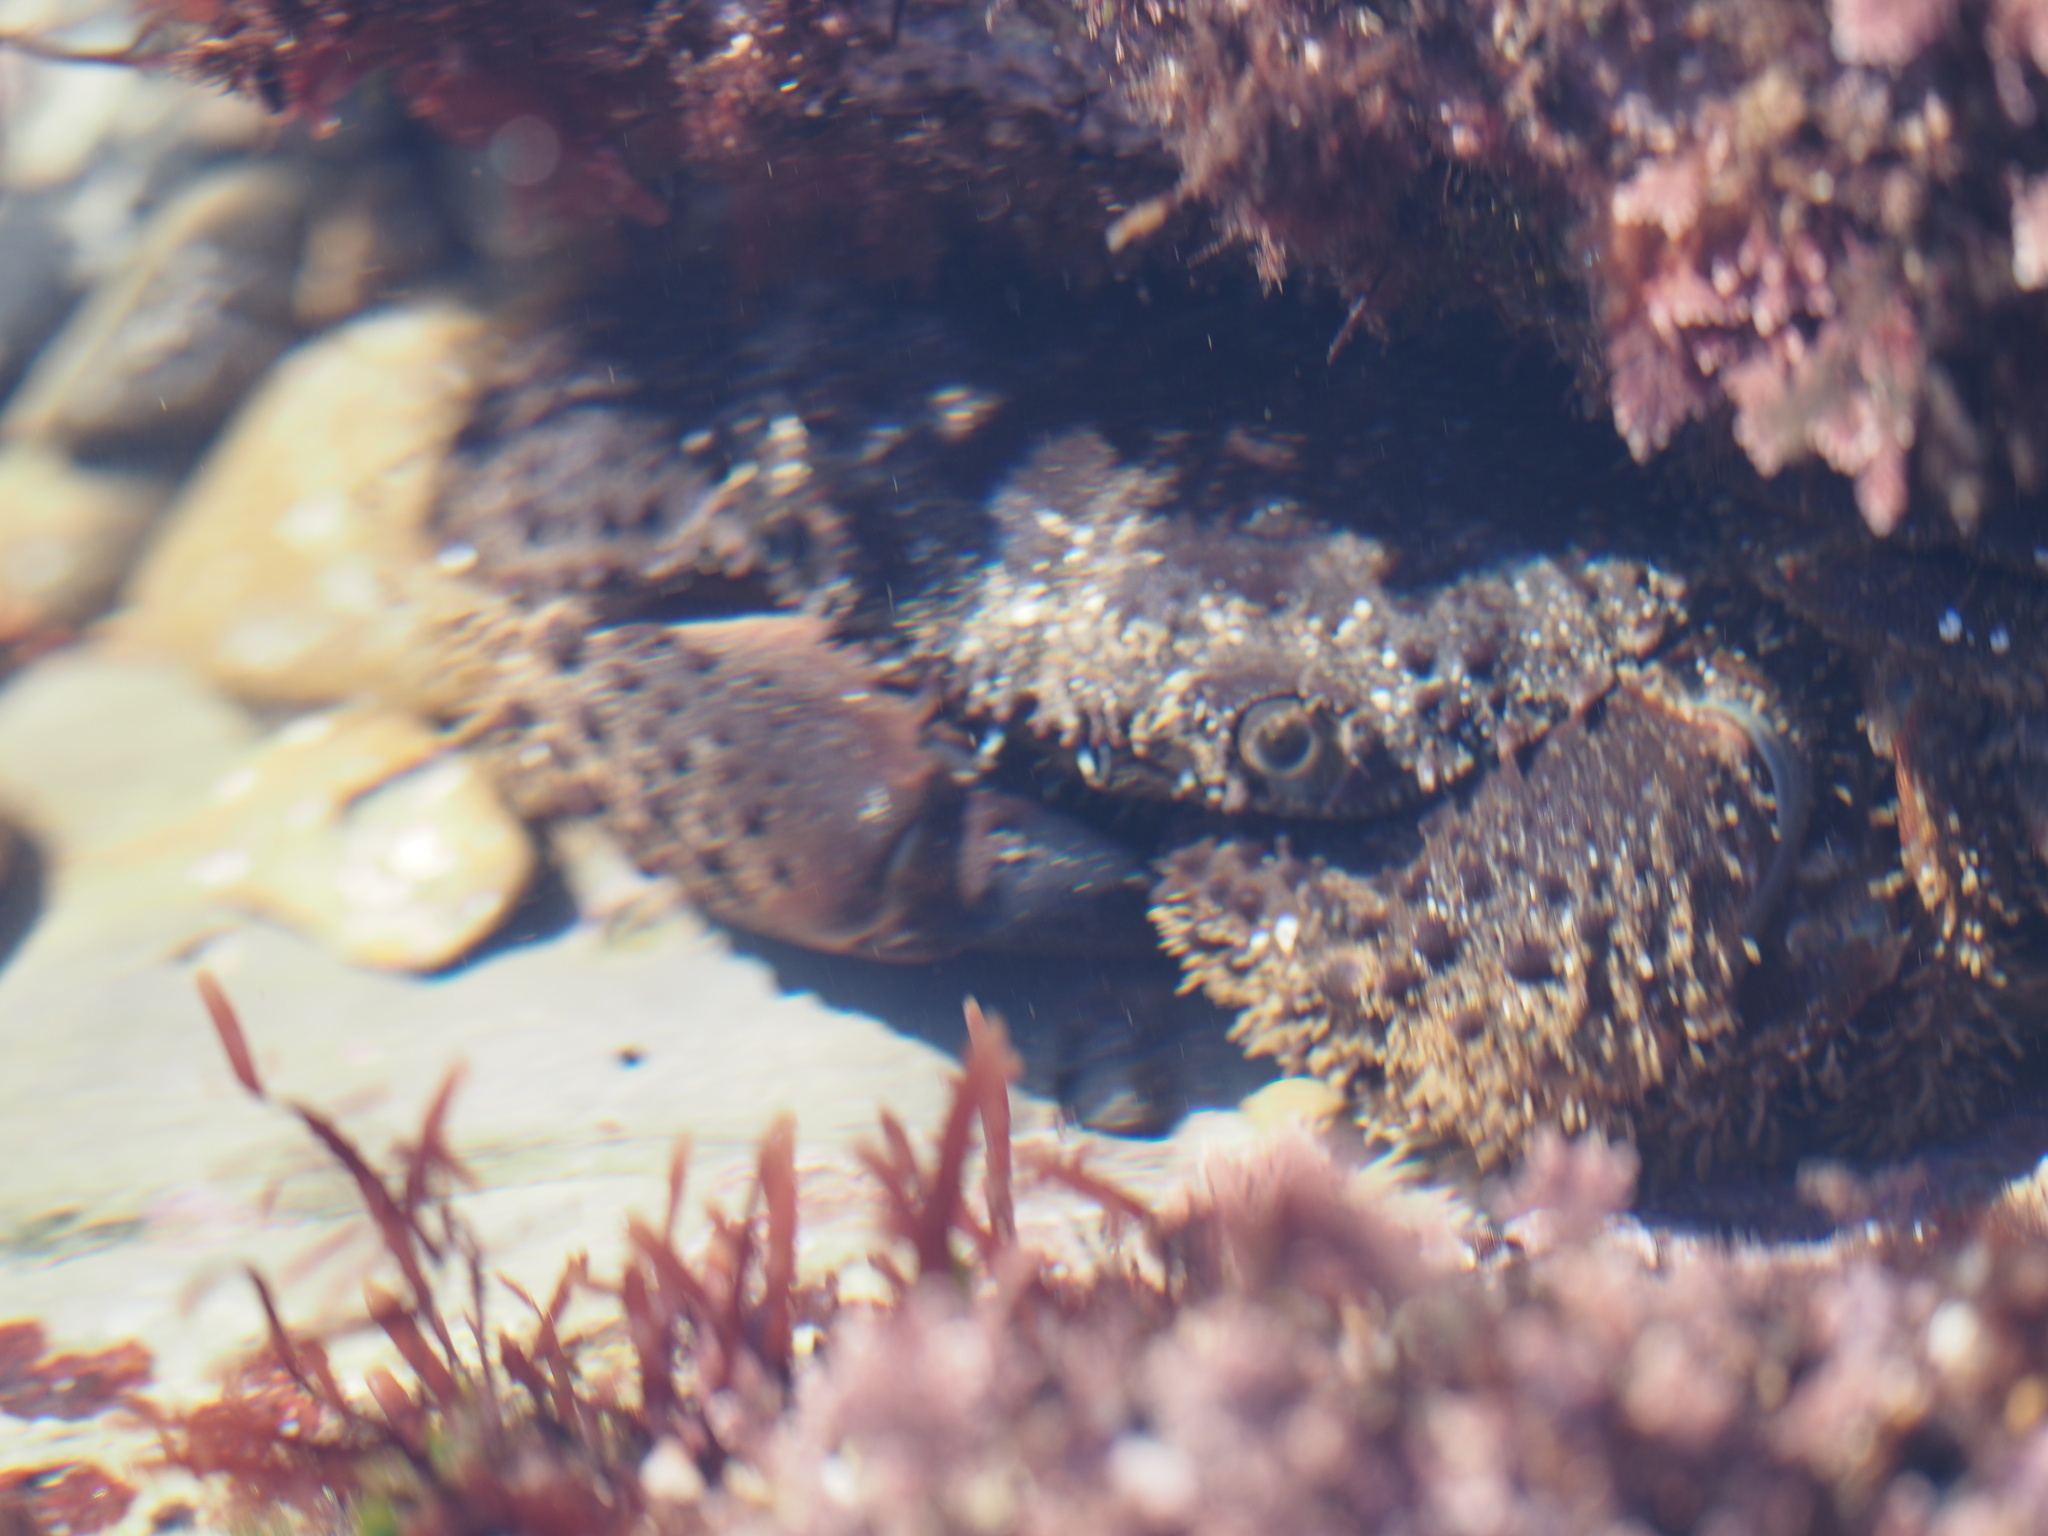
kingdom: Animalia
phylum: Arthropoda
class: Malacostraca
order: Decapoda
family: Eriphiidae
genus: Eriphia
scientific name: Eriphia verrucosa
